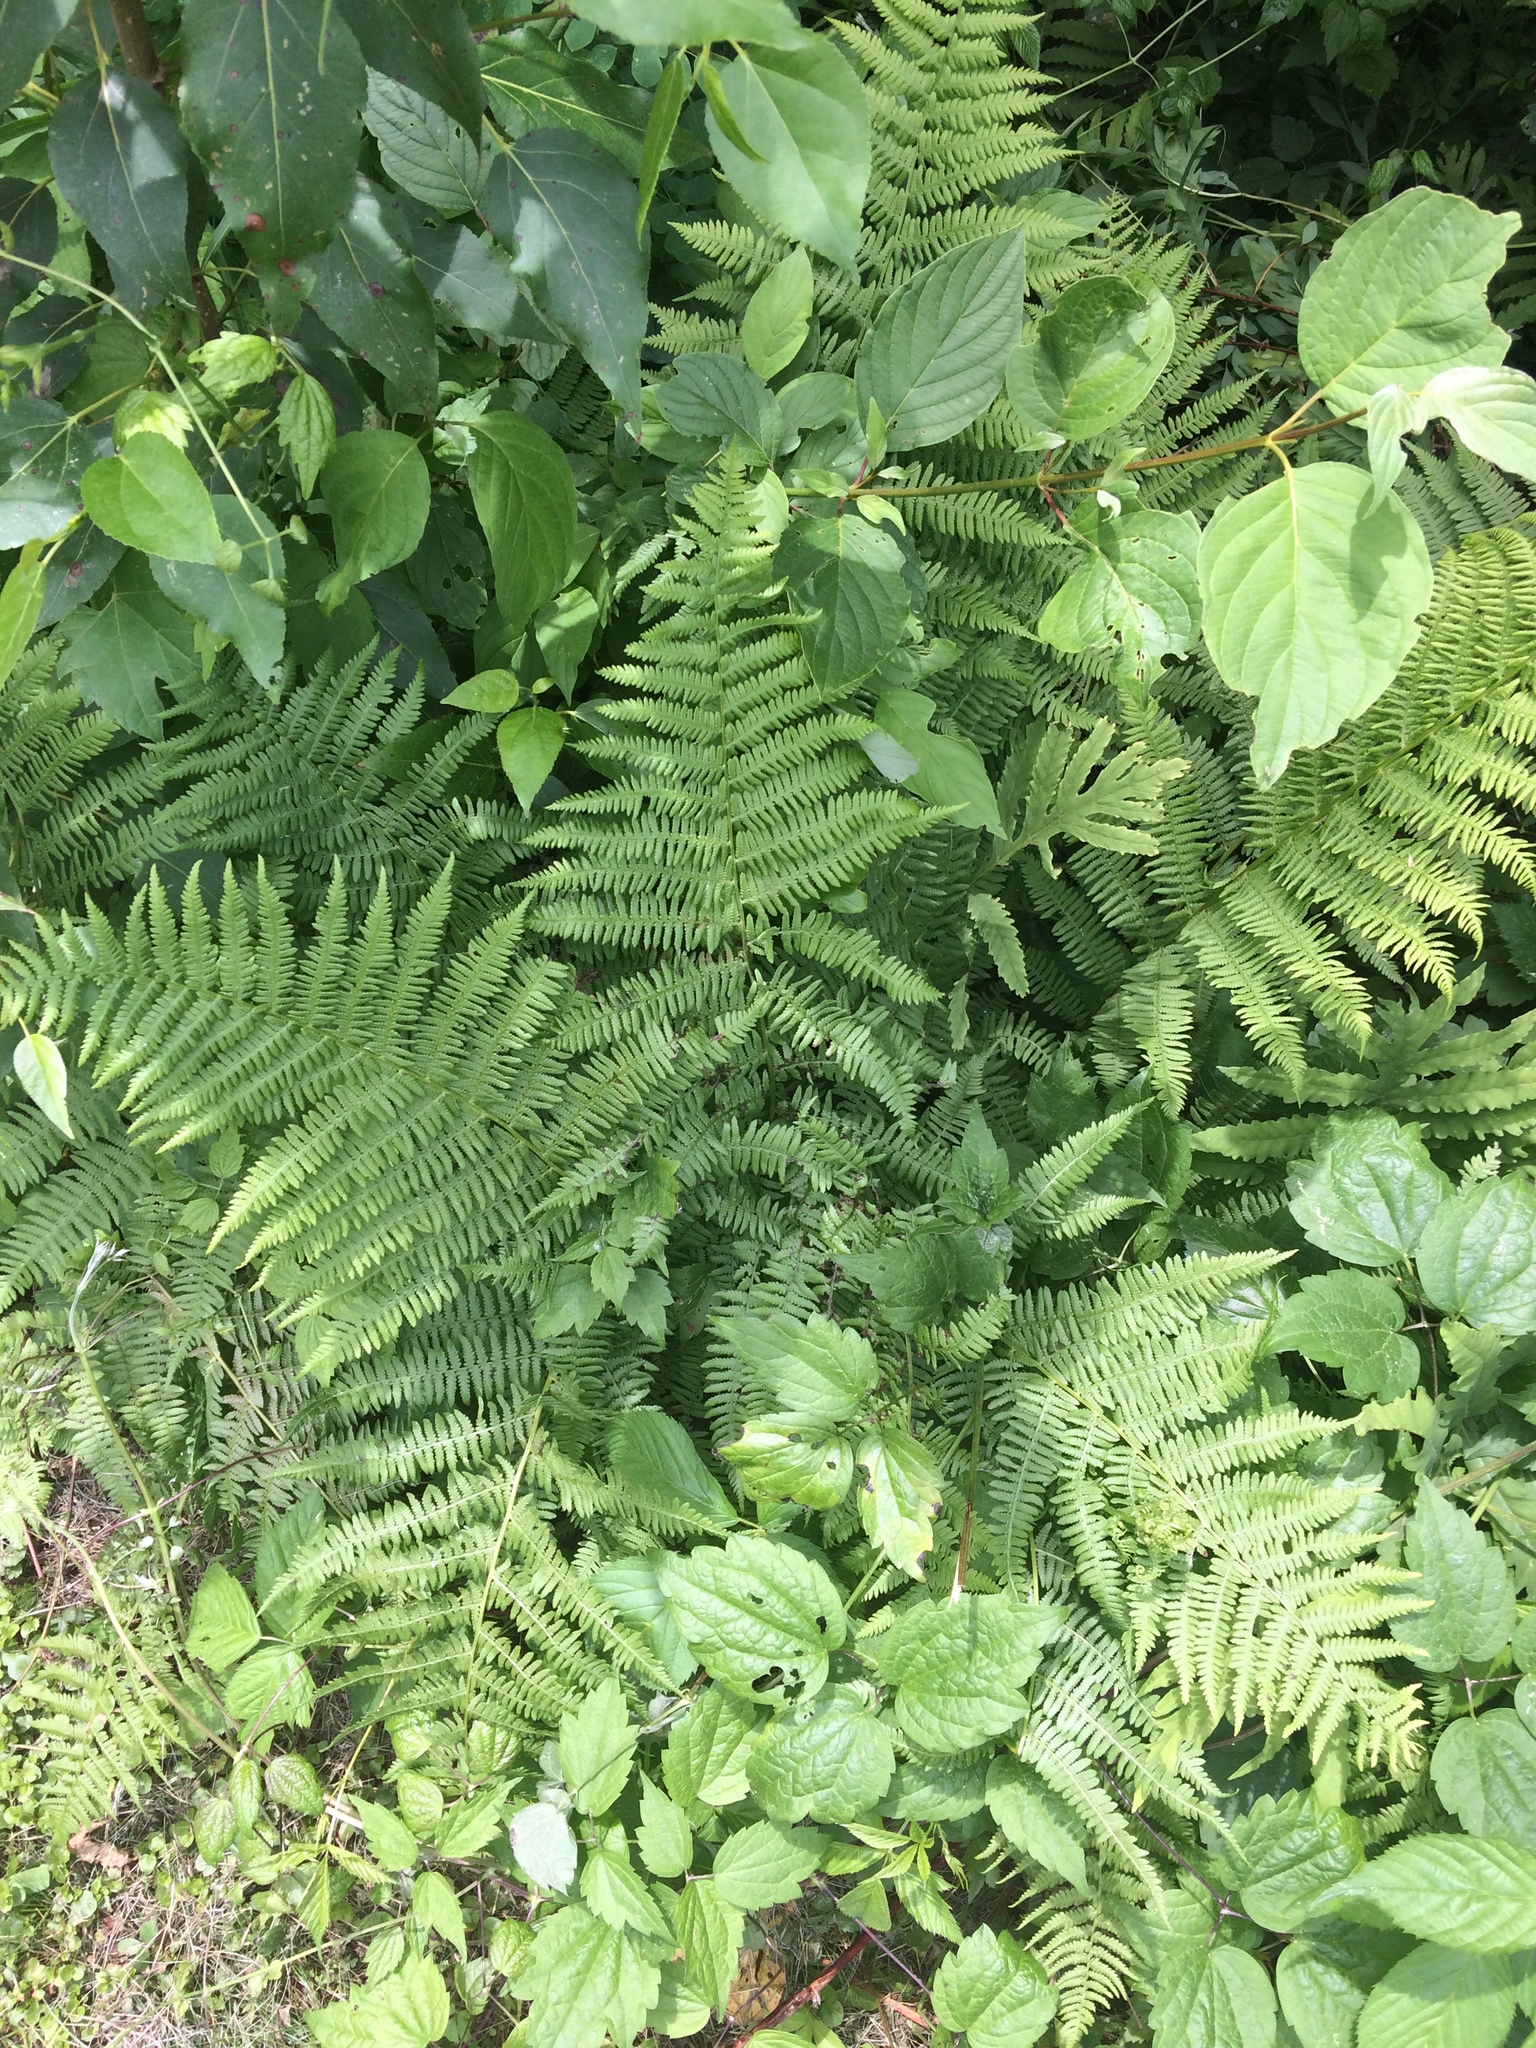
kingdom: Plantae
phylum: Tracheophyta
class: Polypodiopsida
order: Polypodiales
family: Athyriaceae
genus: Athyrium
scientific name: Athyrium angustum
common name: Northern lady fern
